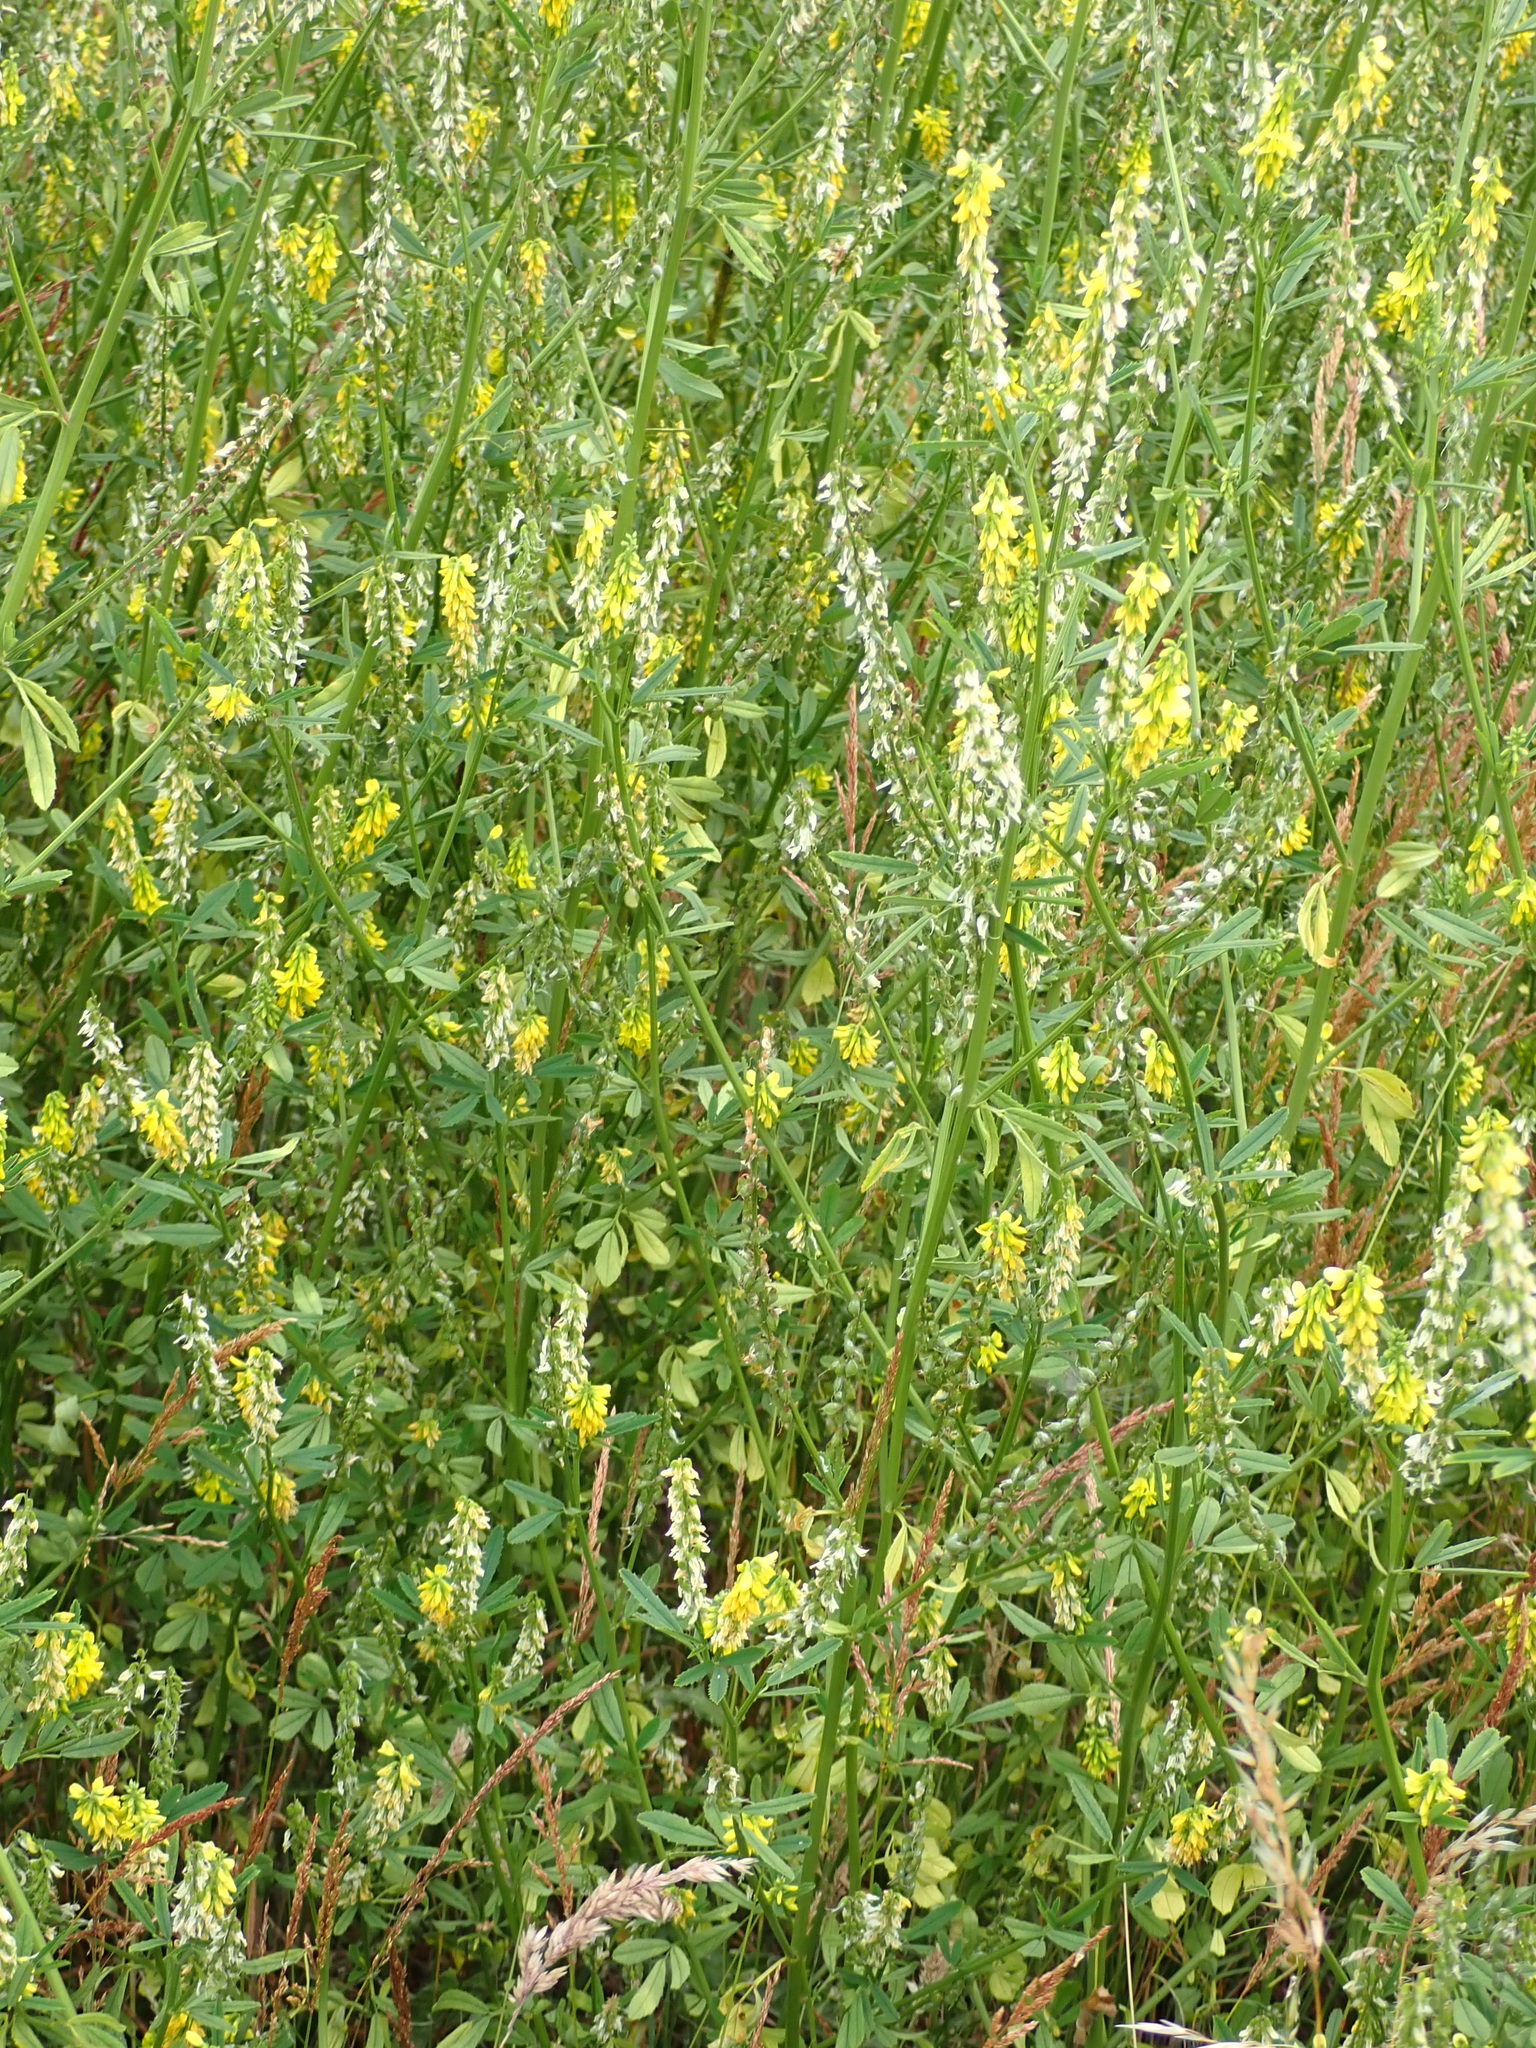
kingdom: Plantae
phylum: Tracheophyta
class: Magnoliopsida
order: Fabales
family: Fabaceae
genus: Melilotus
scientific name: Melilotus officinalis
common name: Sweetclover
